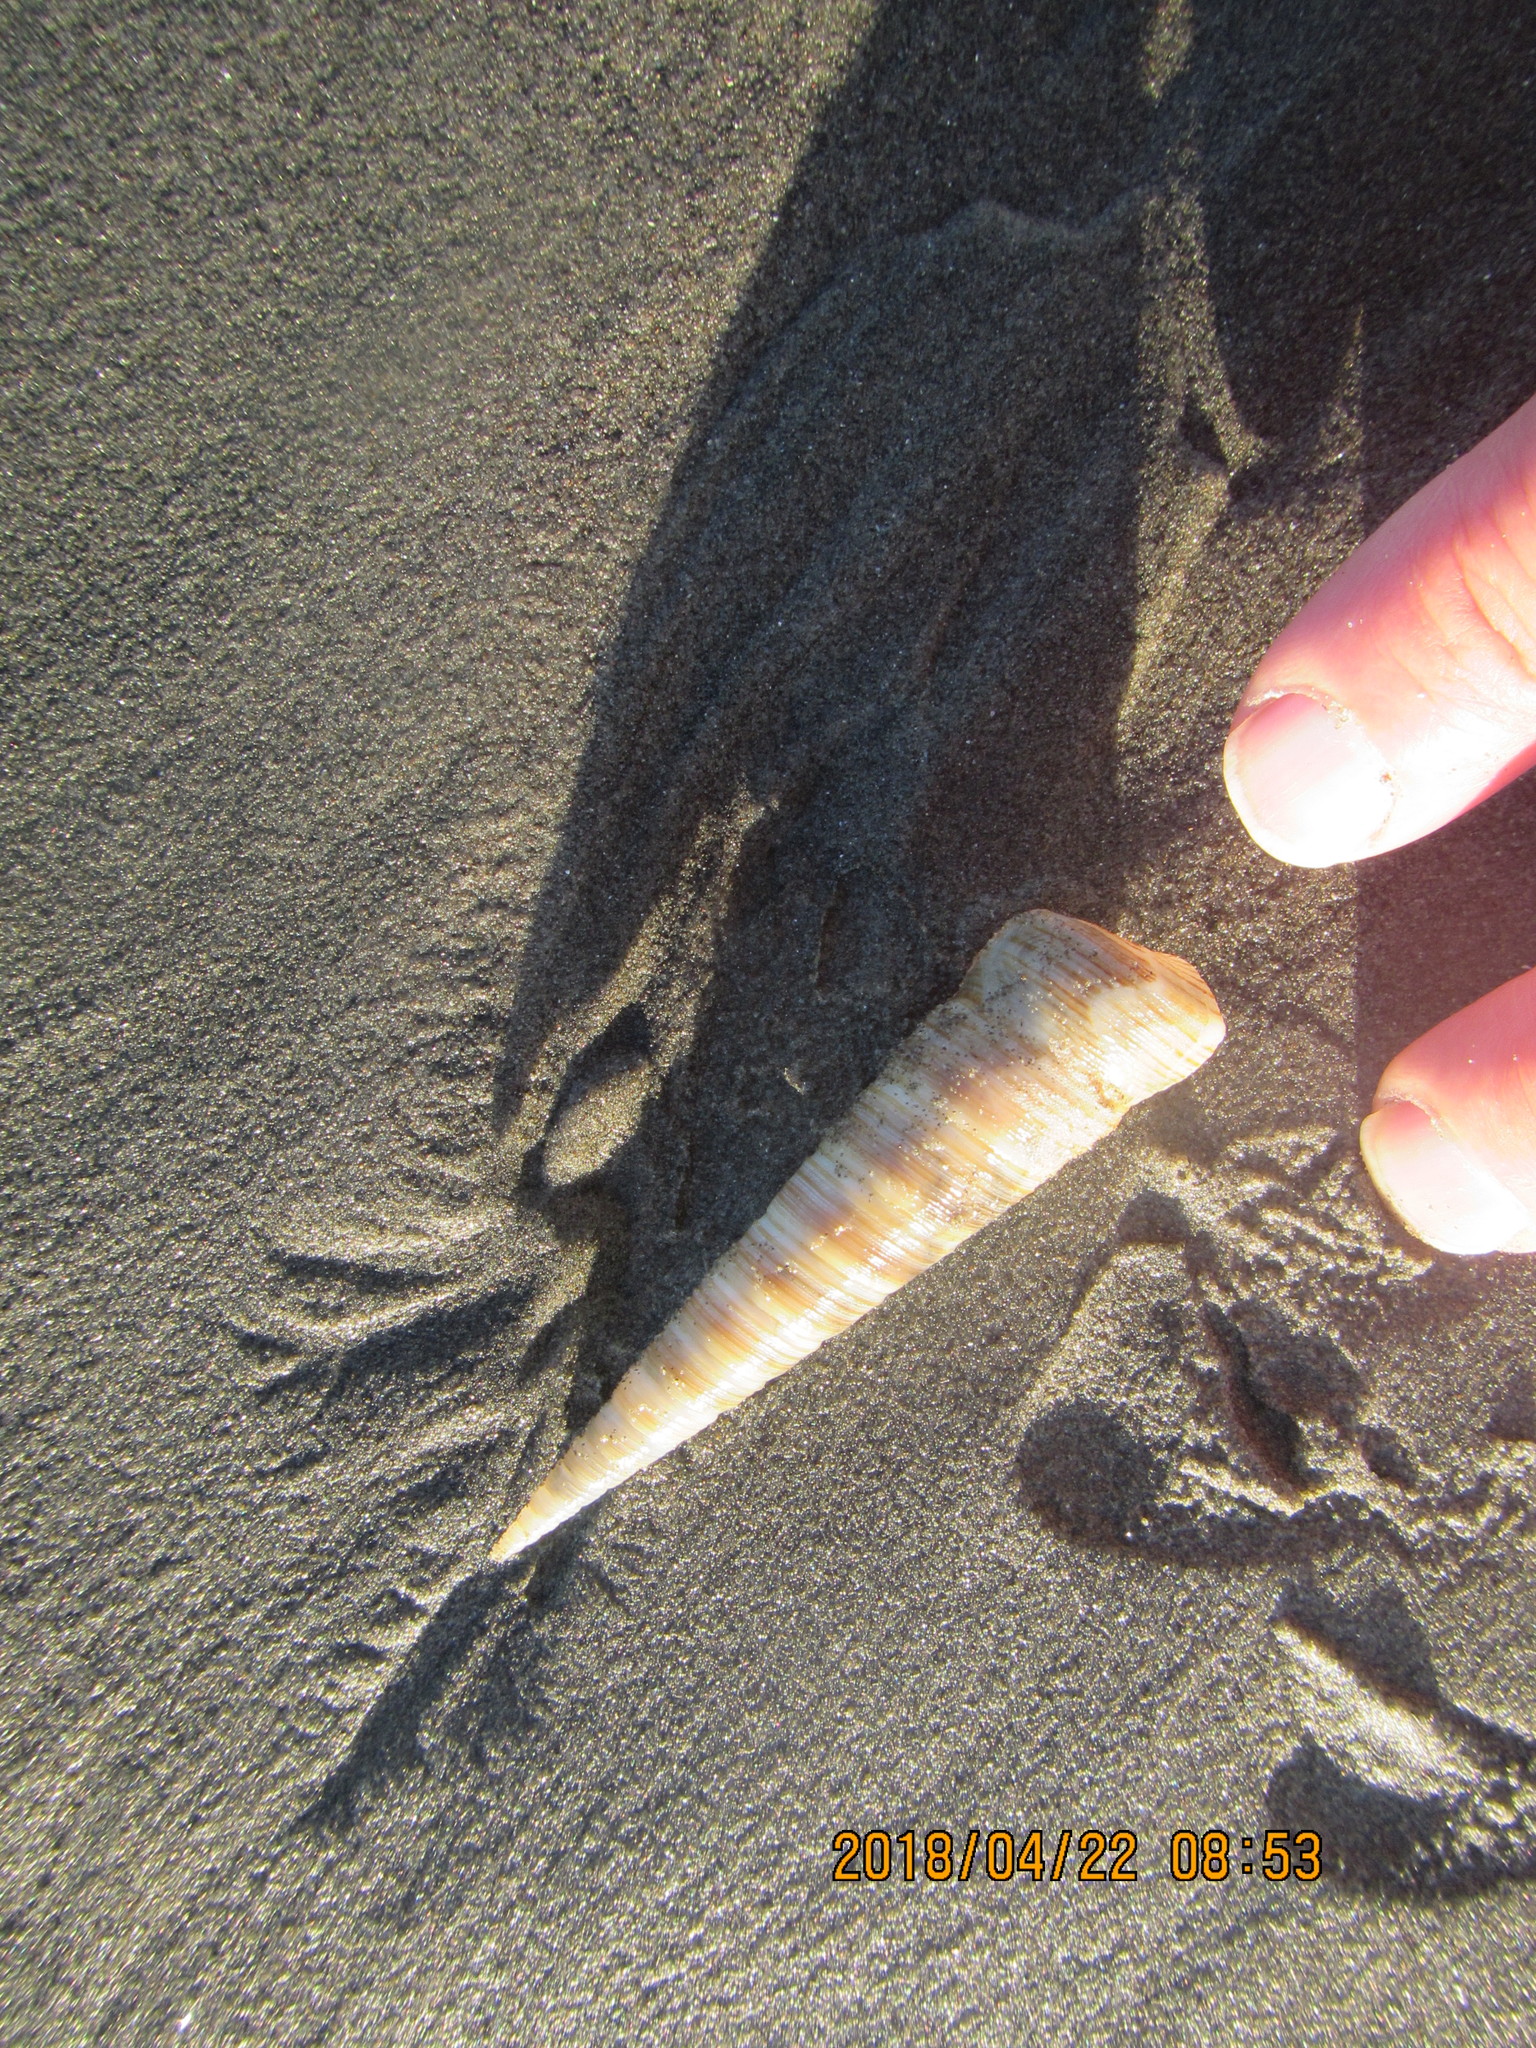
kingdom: Animalia
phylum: Mollusca
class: Gastropoda
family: Turritellidae
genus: Zeacolpus
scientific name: Zeacolpus vittatus
